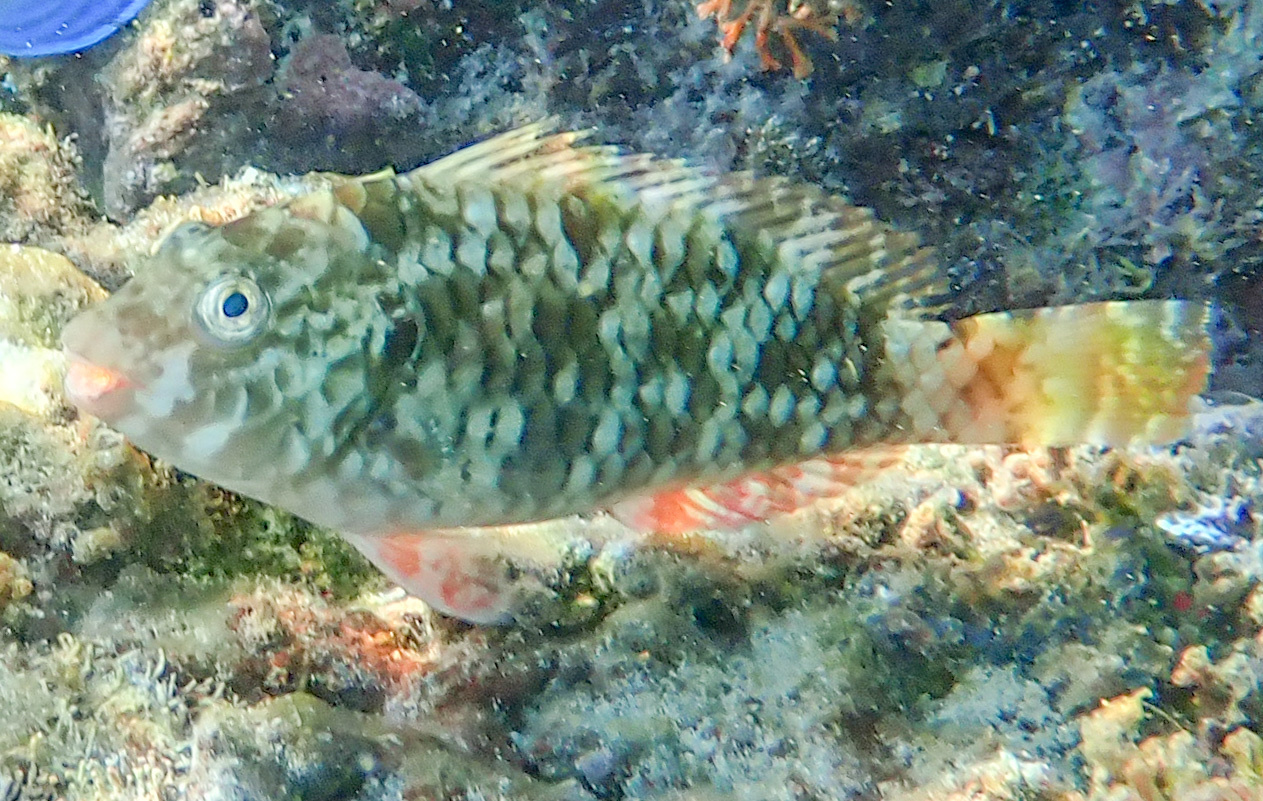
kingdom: Animalia
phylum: Chordata
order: Perciformes
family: Scaridae
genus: Sparisoma
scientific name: Sparisoma rubripinne
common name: Redfin parrotfish
